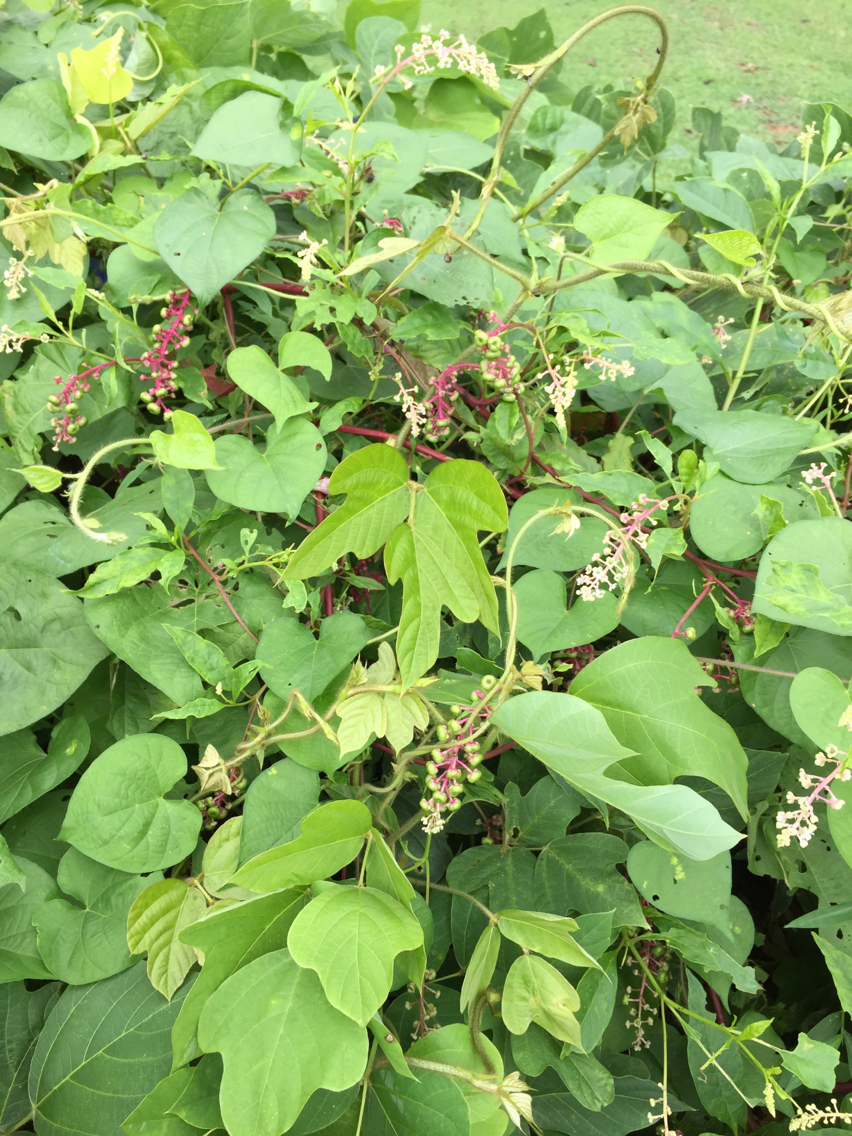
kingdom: Plantae
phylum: Tracheophyta
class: Magnoliopsida
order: Caryophyllales
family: Phytolaccaceae
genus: Phytolacca
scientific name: Phytolacca americana
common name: American pokeweed
